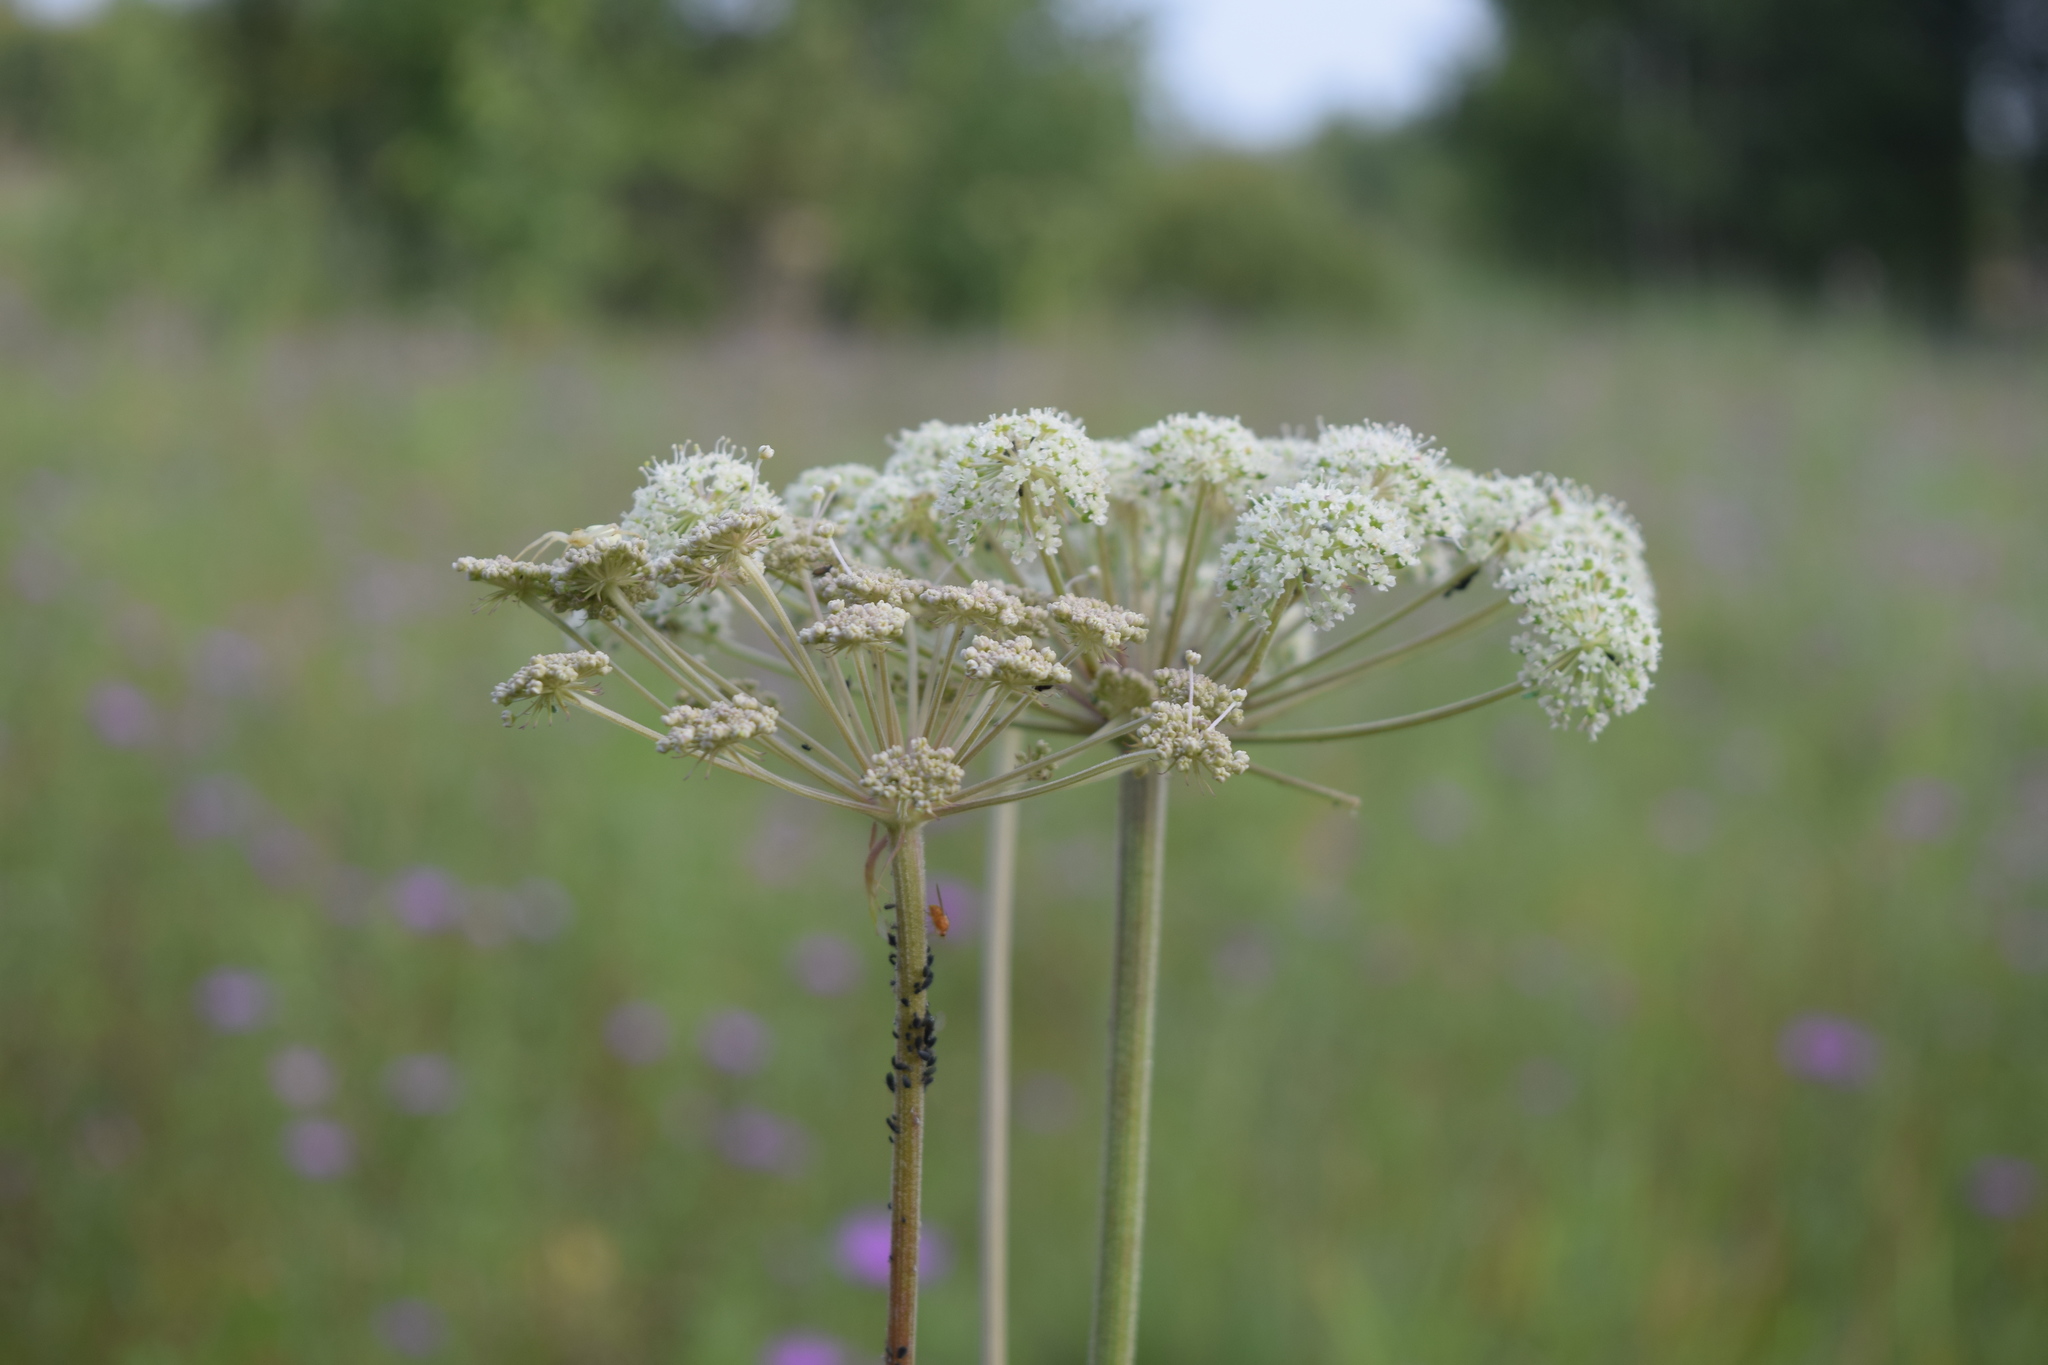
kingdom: Plantae
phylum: Tracheophyta
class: Magnoliopsida
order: Apiales
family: Apiaceae
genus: Angelica
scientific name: Angelica sylvestris
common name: Wild angelica
